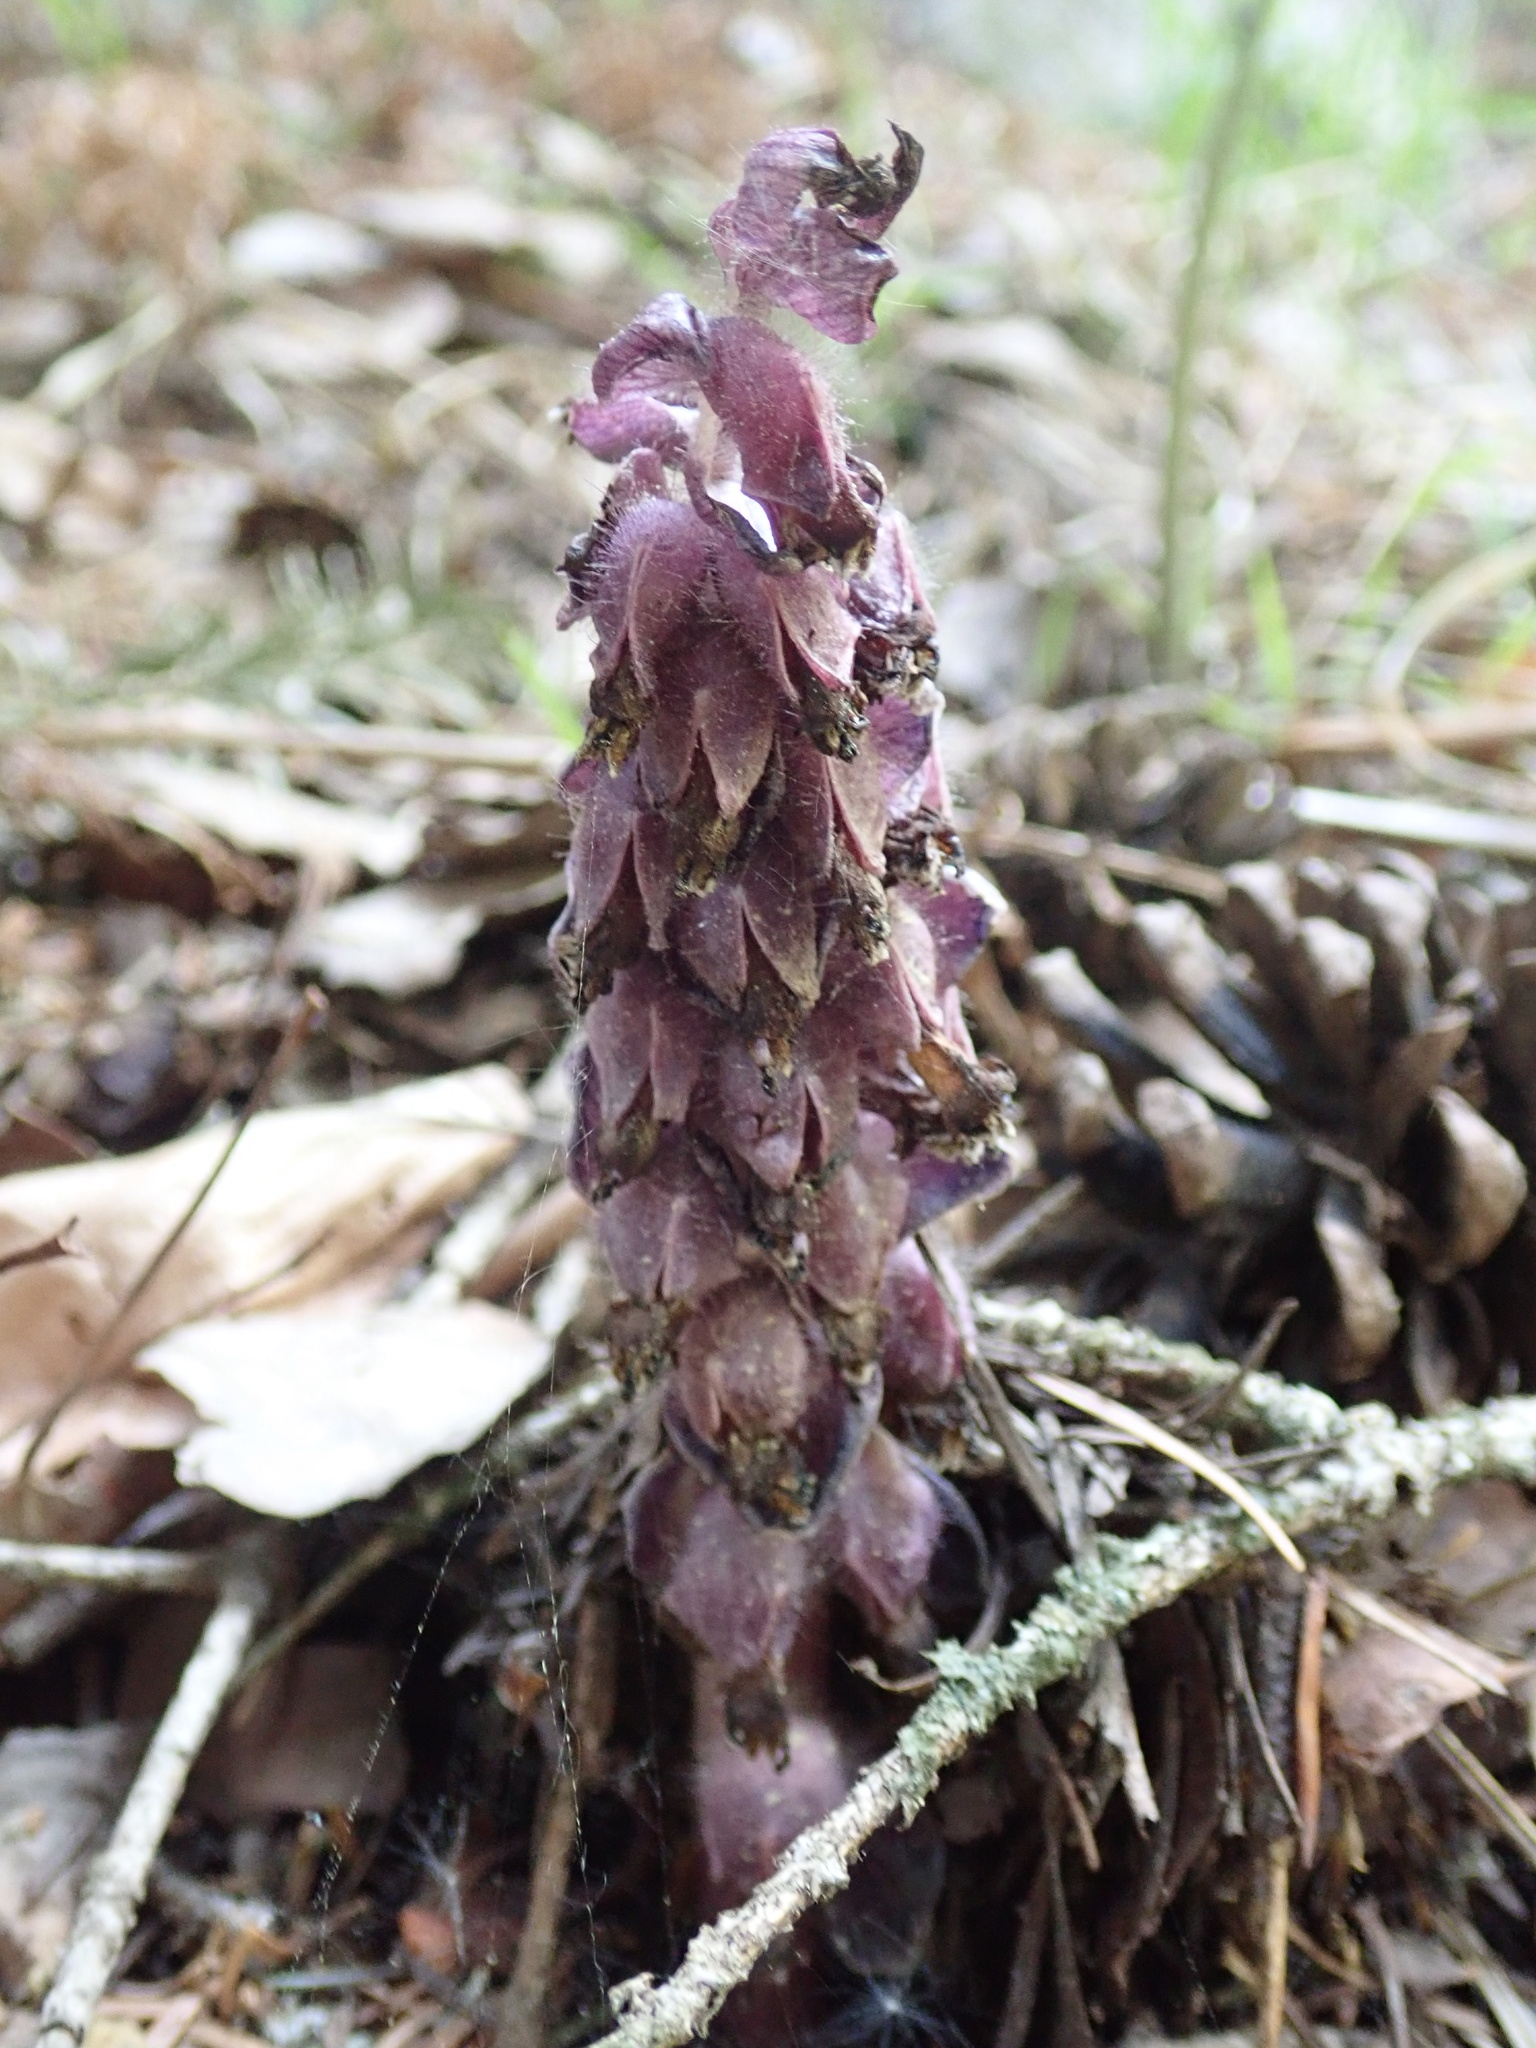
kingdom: Plantae
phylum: Tracheophyta
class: Magnoliopsida
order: Lamiales
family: Orobanchaceae
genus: Lathraea
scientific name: Lathraea squamaria
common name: Toothwort
